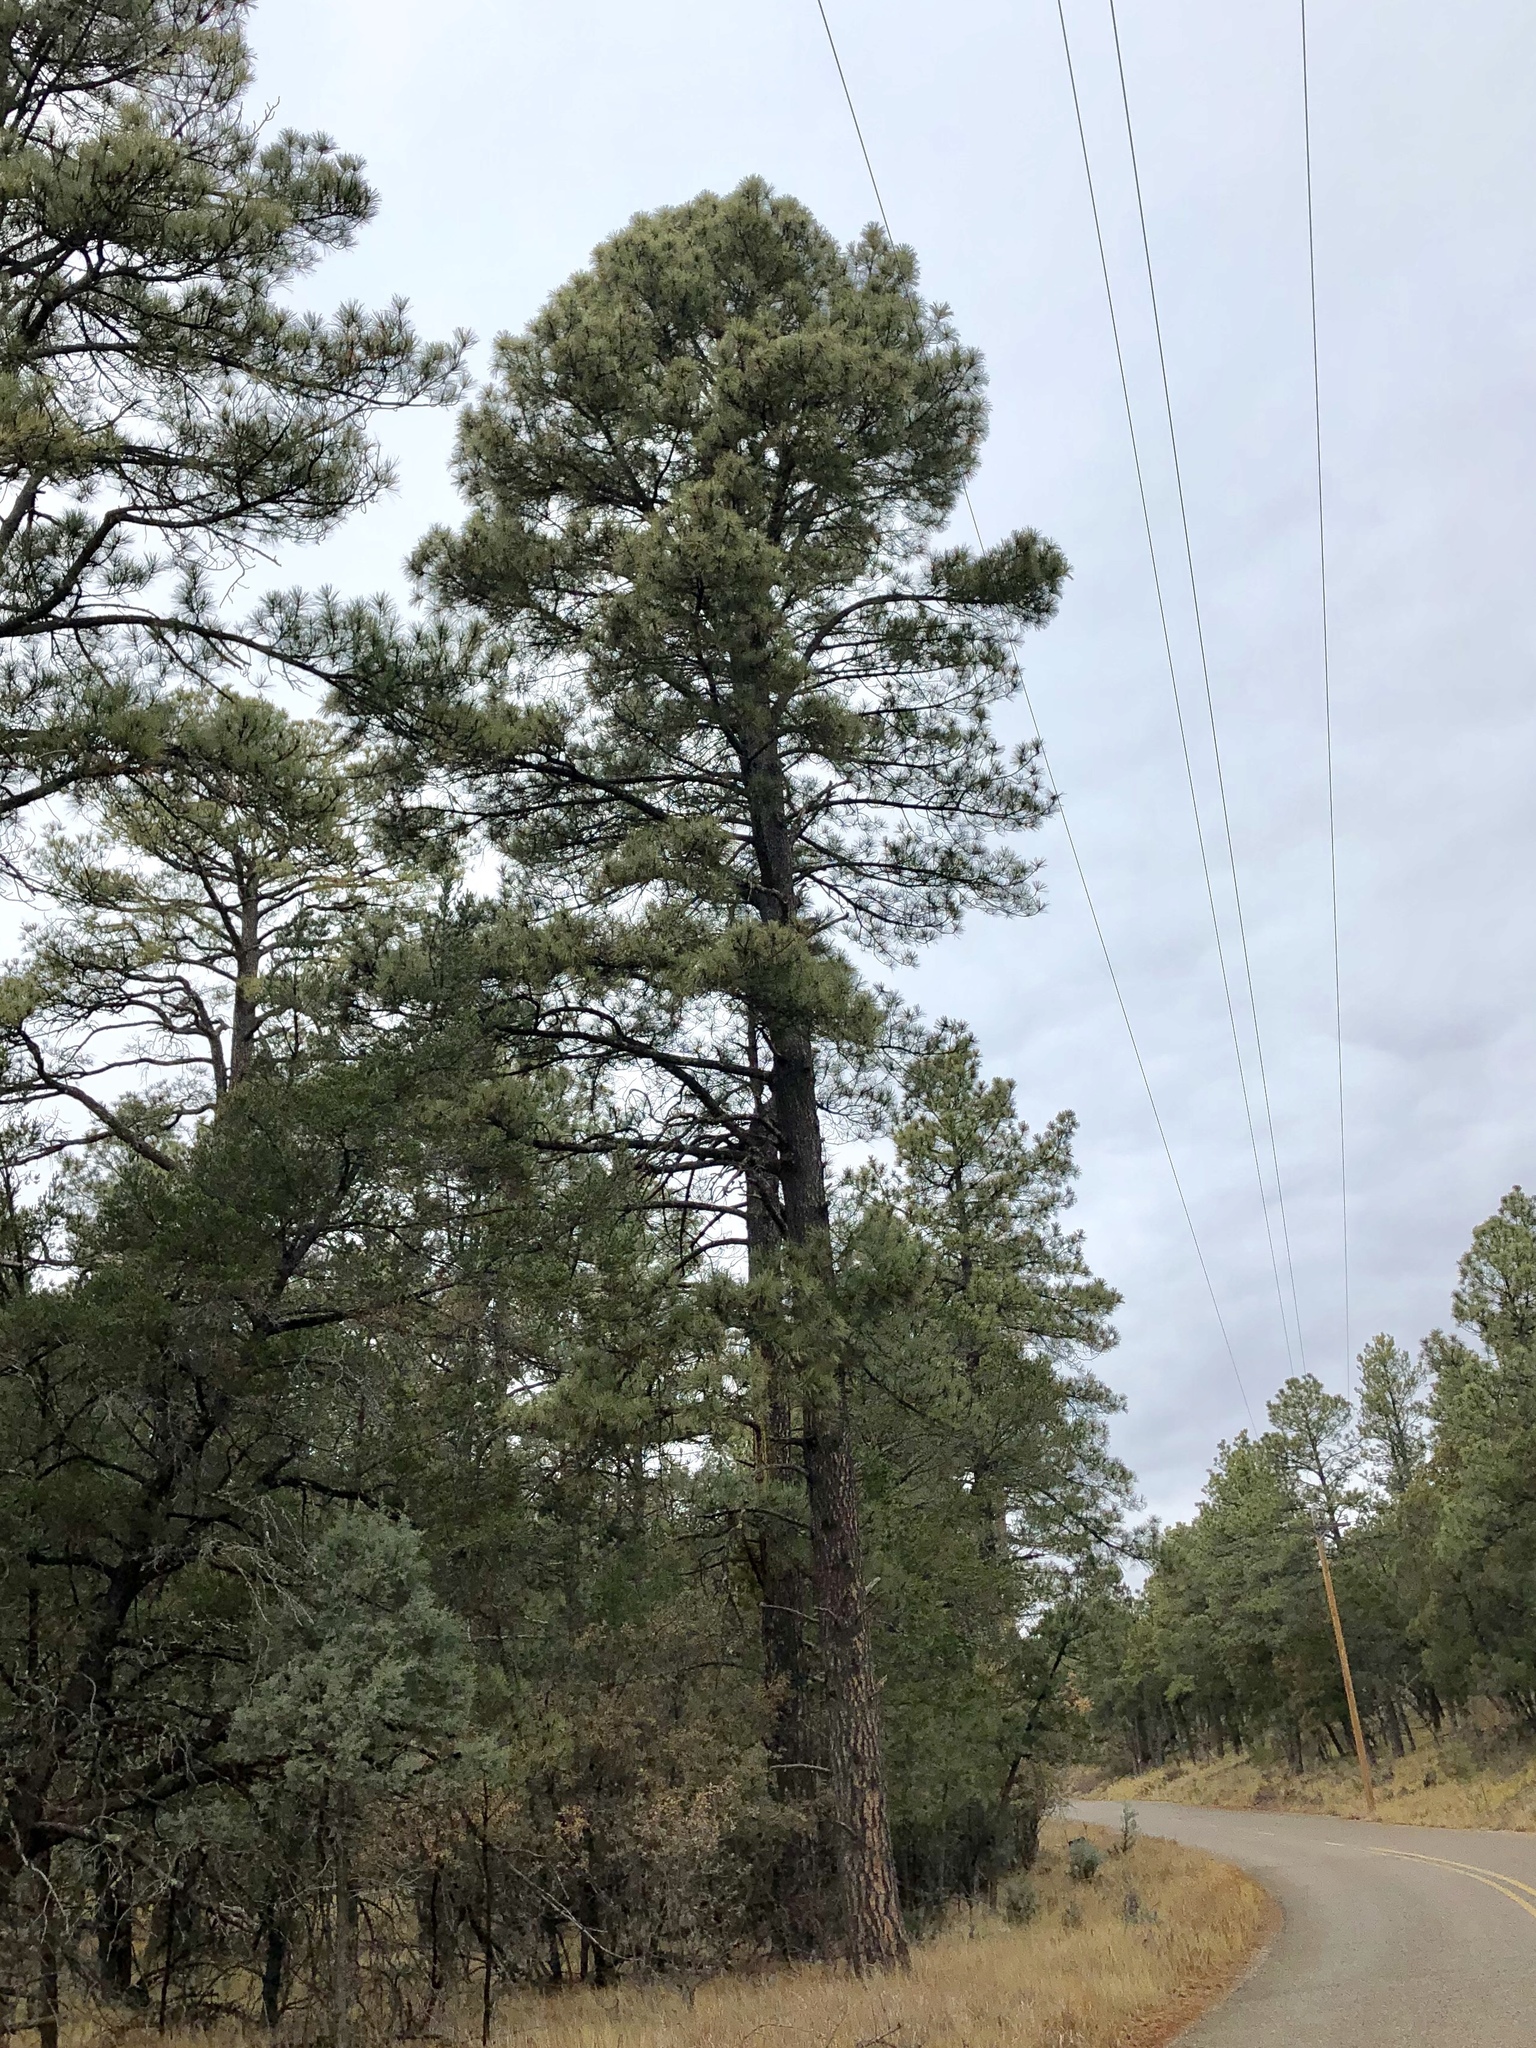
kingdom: Plantae
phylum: Tracheophyta
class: Pinopsida
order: Pinales
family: Pinaceae
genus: Pinus
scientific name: Pinus ponderosa
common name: Western yellow-pine
